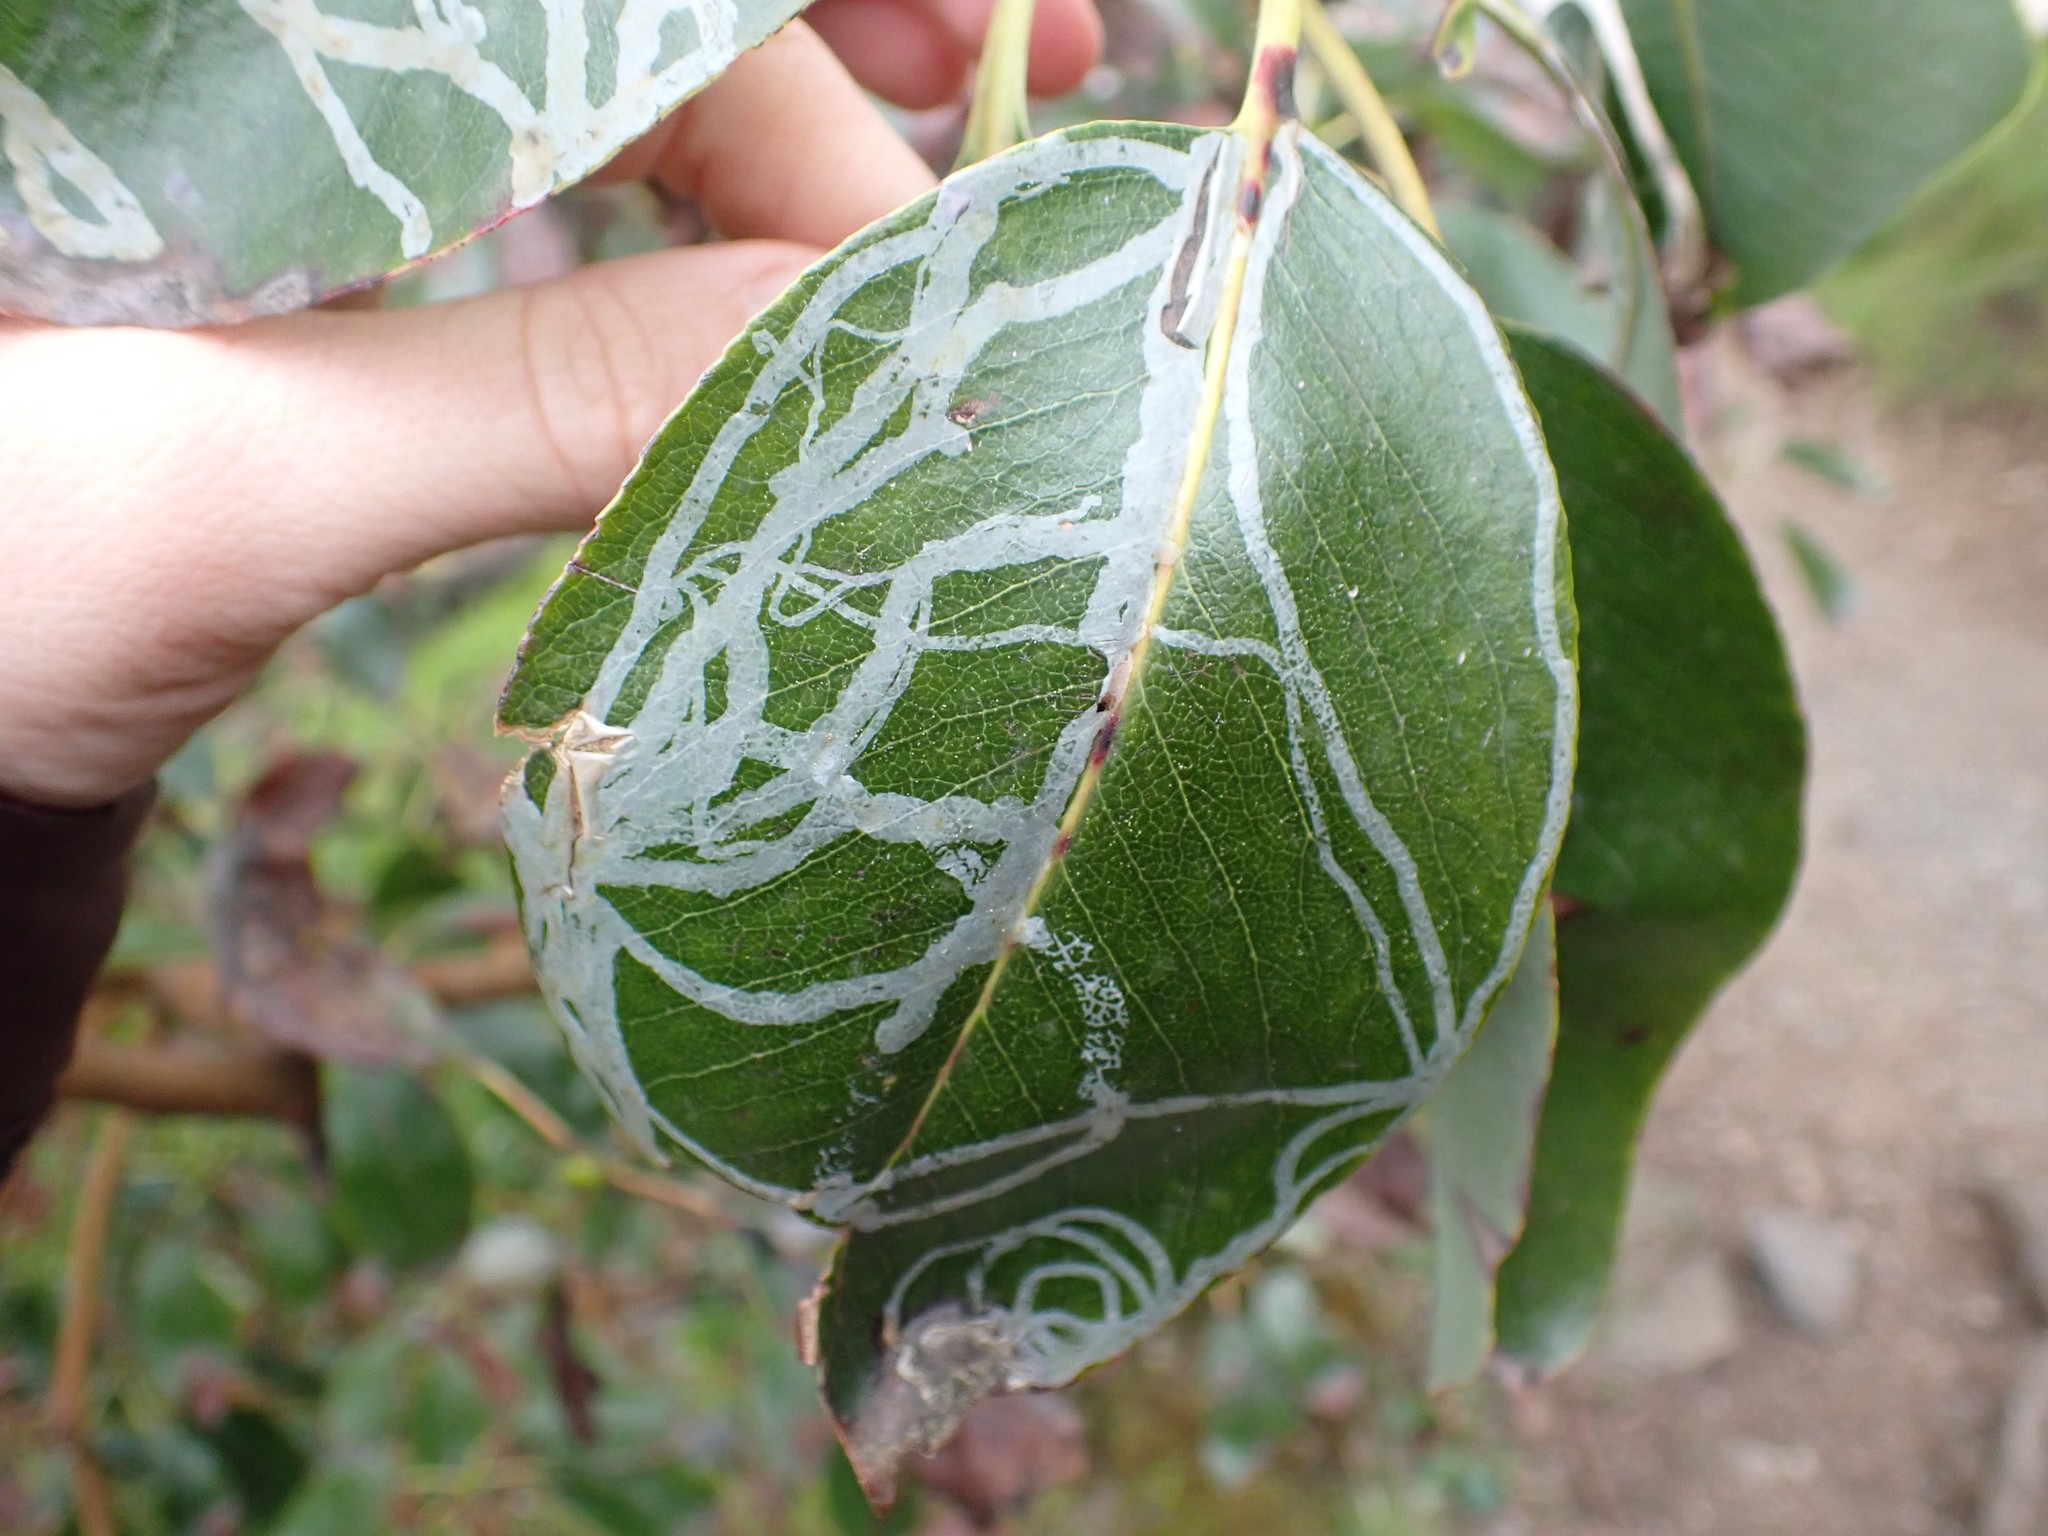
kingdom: Animalia
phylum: Arthropoda
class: Insecta
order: Lepidoptera
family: Gracillariidae
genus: Marmara
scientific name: Marmara arbutiella
